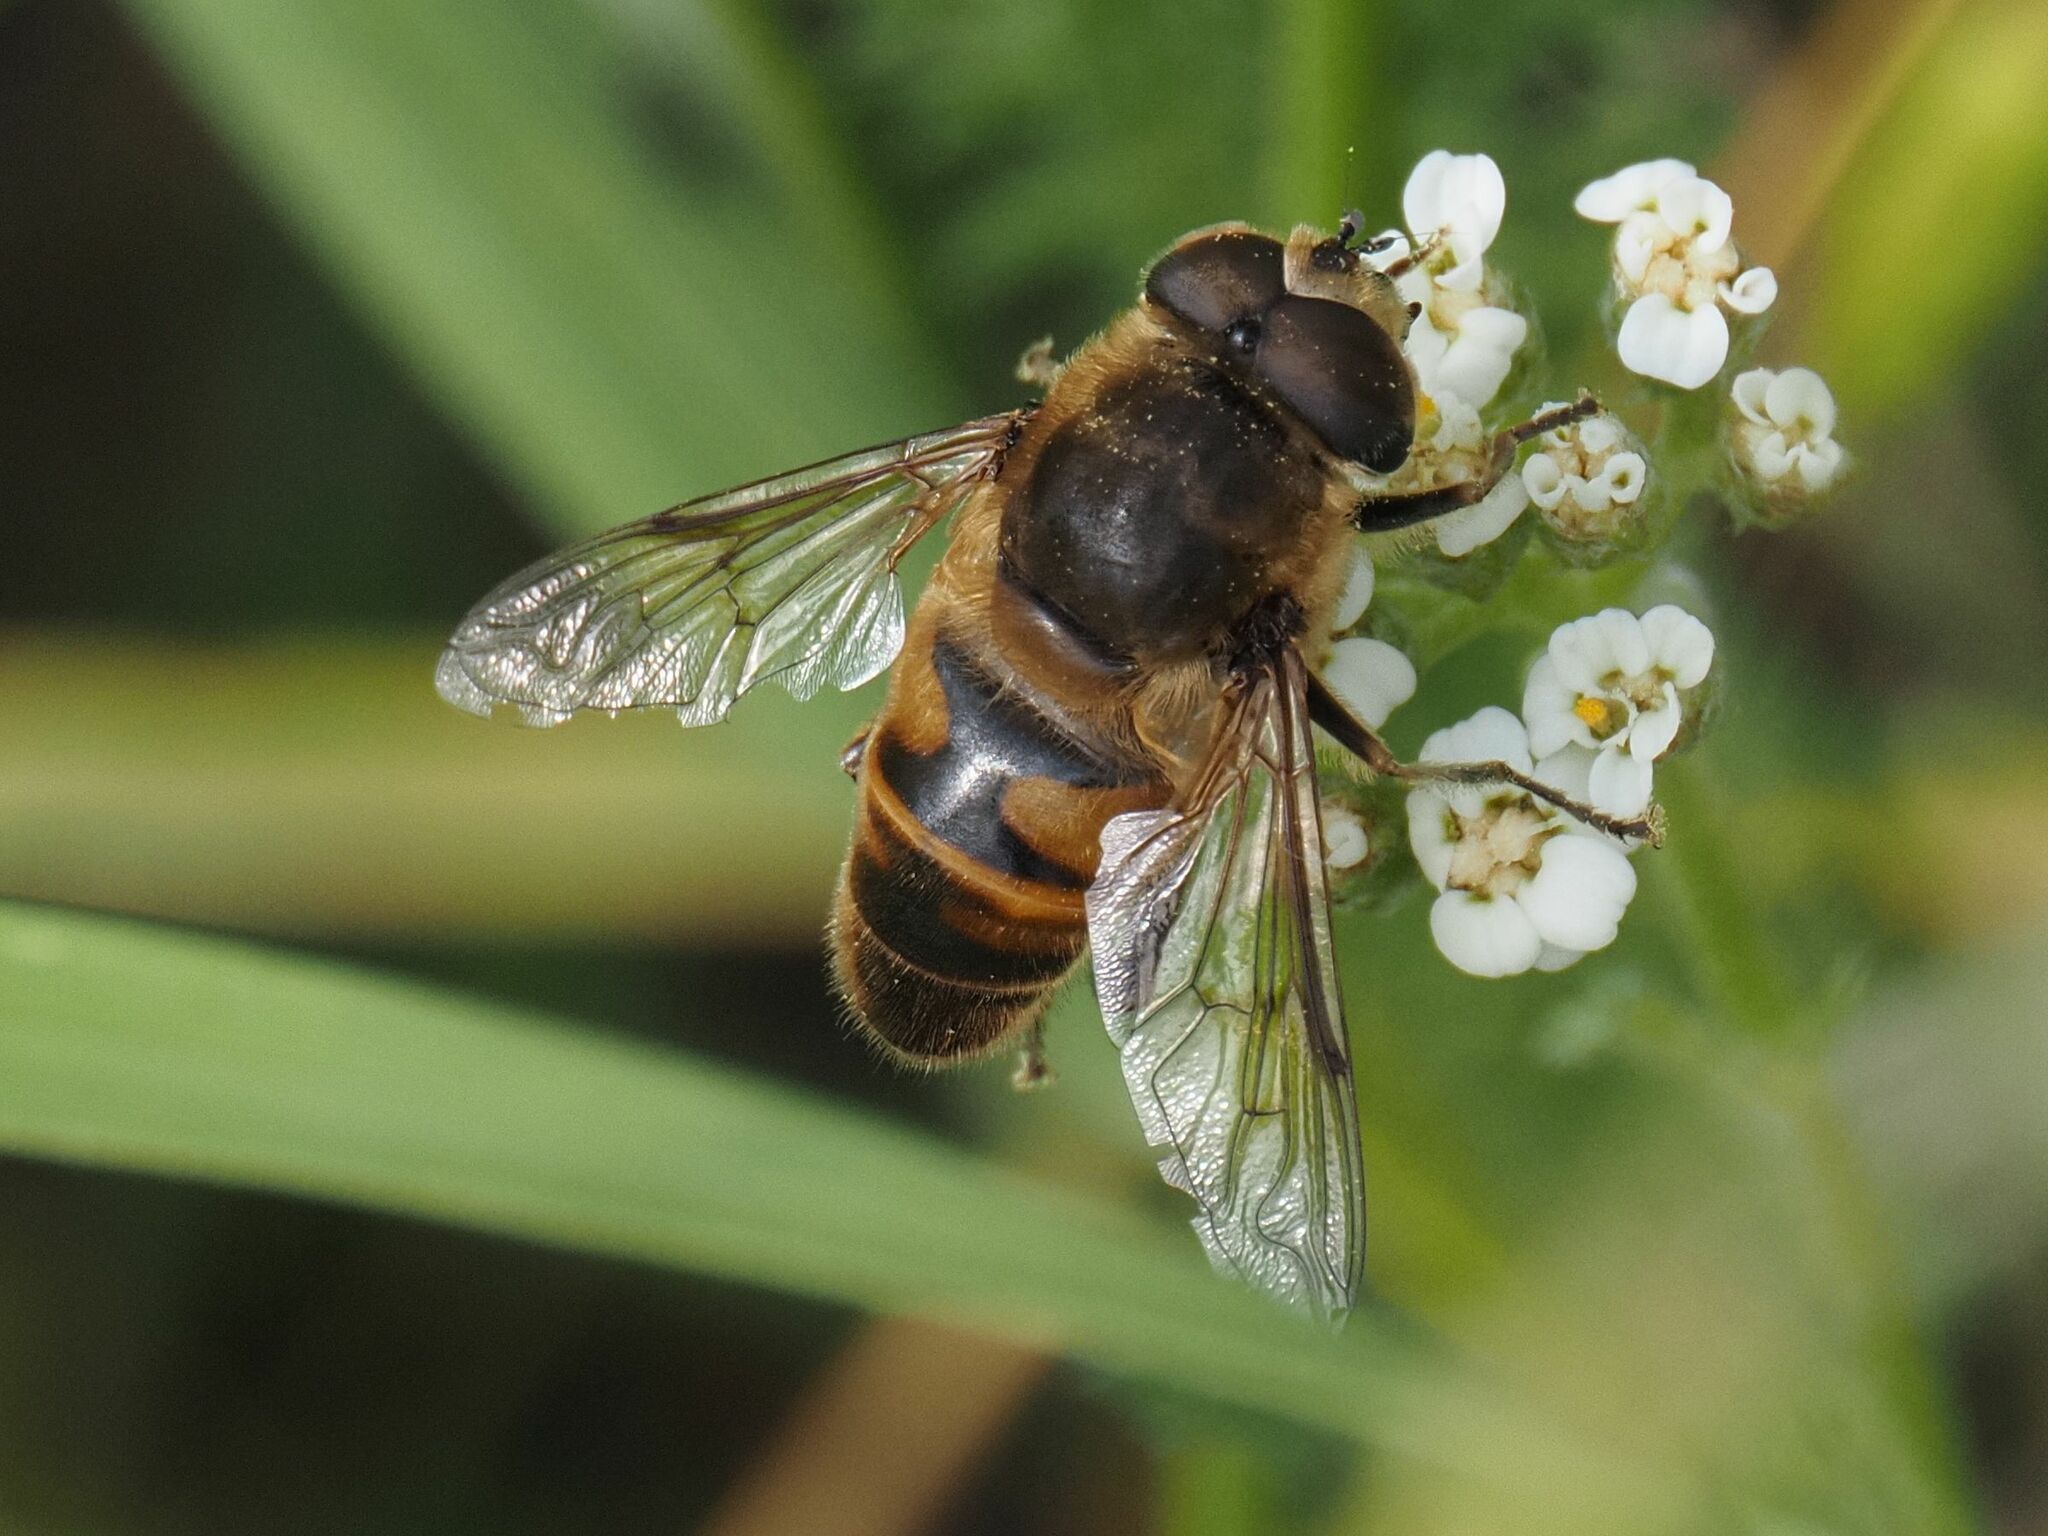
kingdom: Animalia
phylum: Arthropoda
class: Insecta
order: Diptera
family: Syrphidae
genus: Eristalis
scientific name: Eristalis tenax
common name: Drone fly
